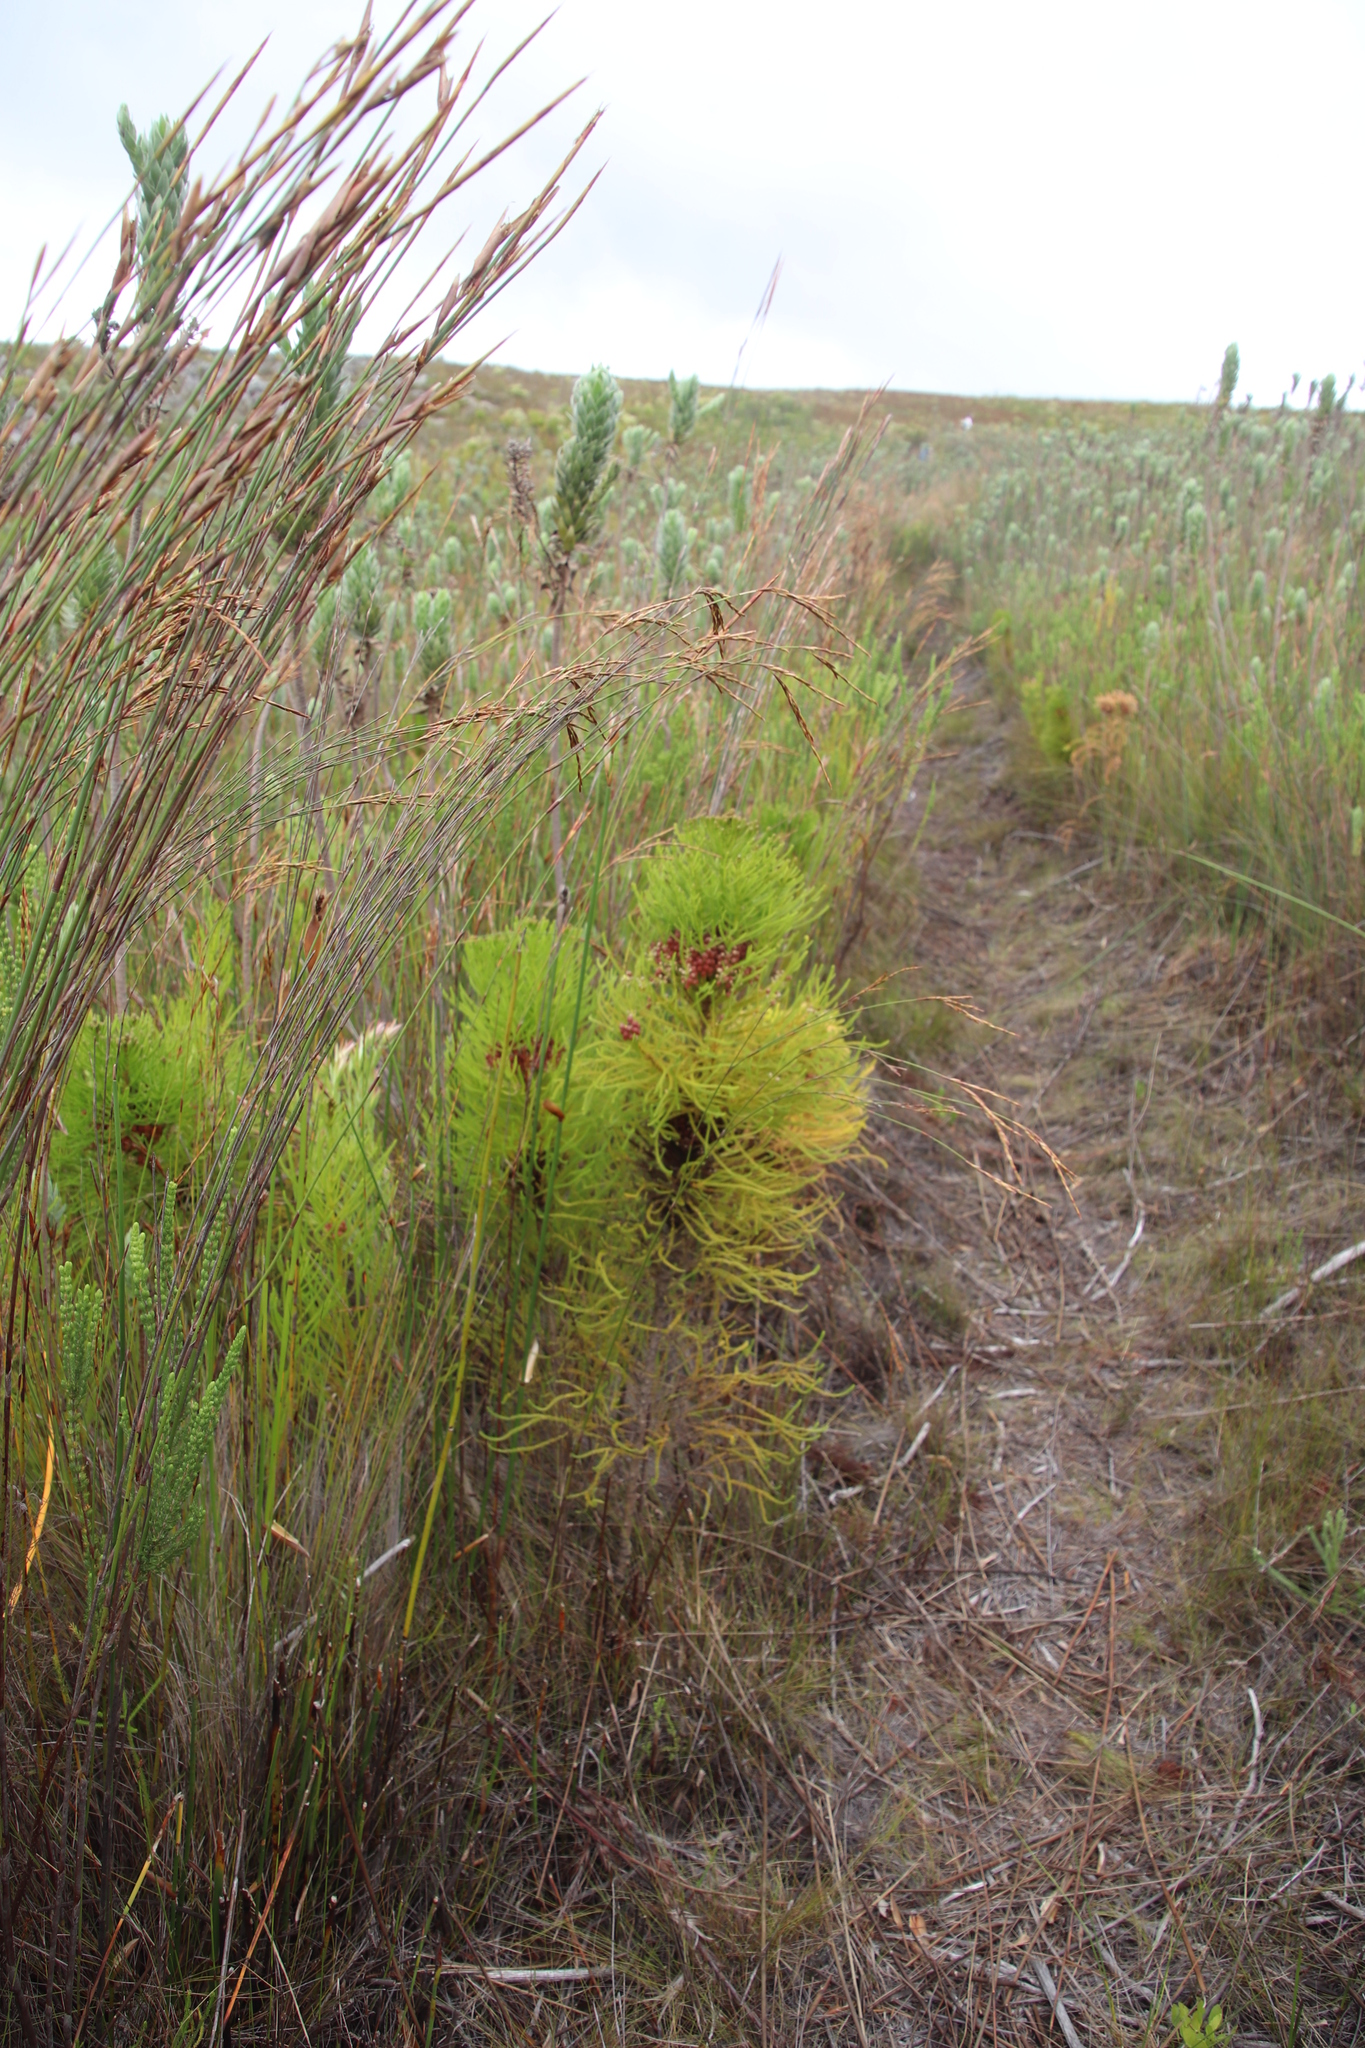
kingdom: Plantae
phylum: Tracheophyta
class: Magnoliopsida
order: Bruniales
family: Bruniaceae
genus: Berzelia
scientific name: Berzelia alopecurioides
